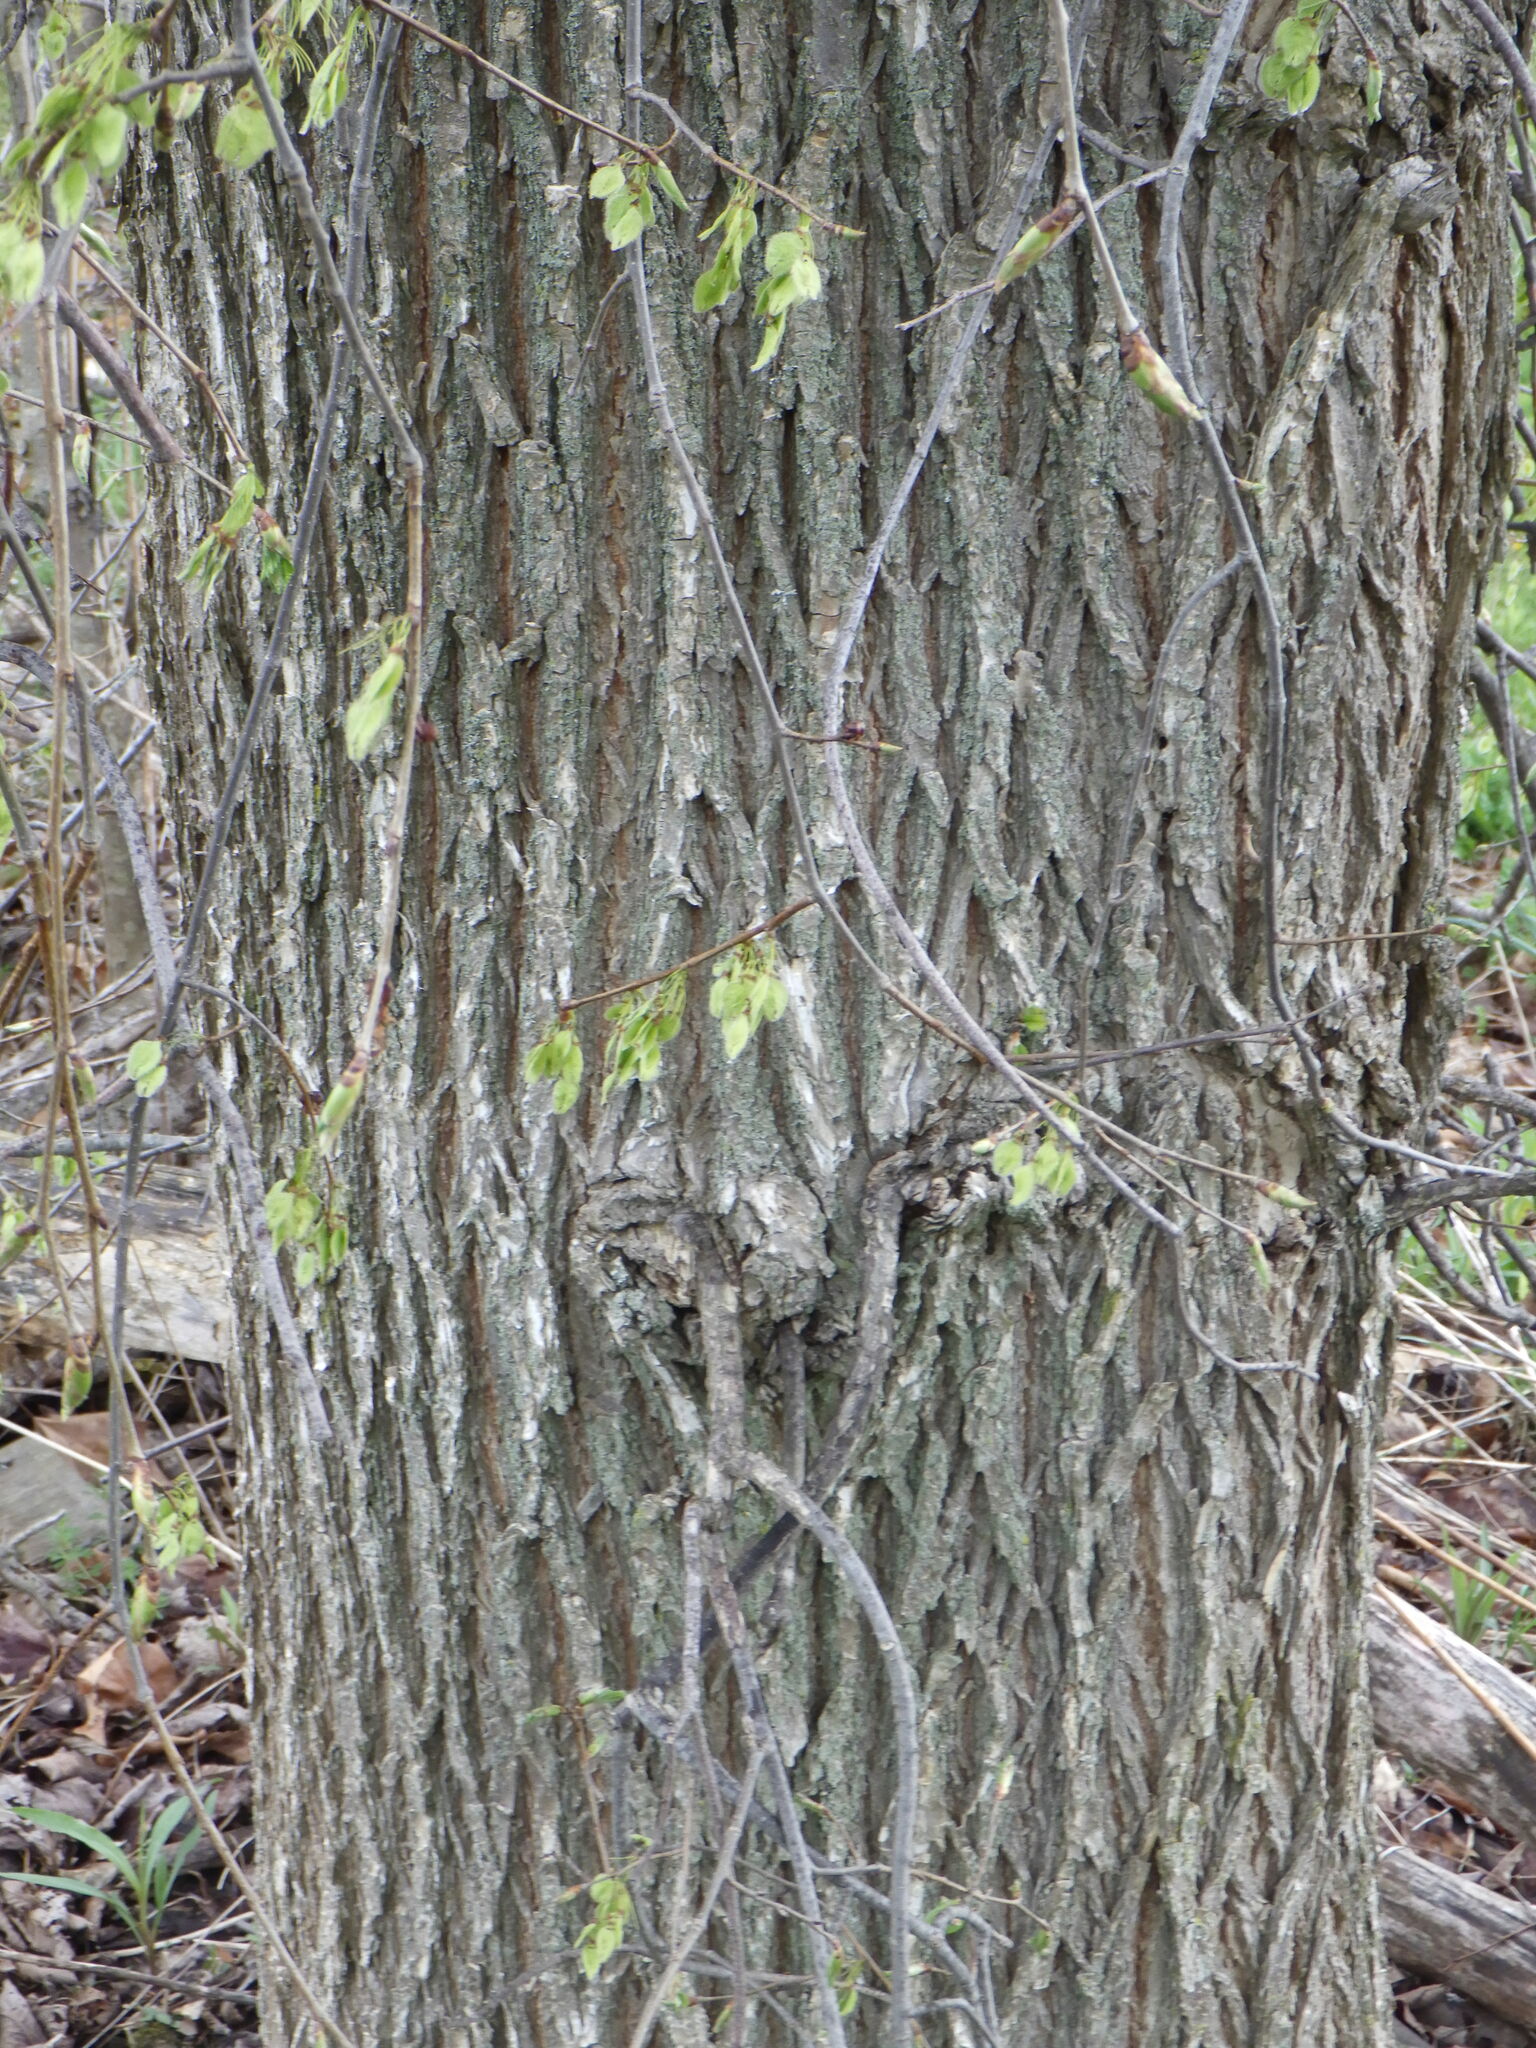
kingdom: Plantae
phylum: Tracheophyta
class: Magnoliopsida
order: Rosales
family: Ulmaceae
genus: Ulmus
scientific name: Ulmus americana
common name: American elm
